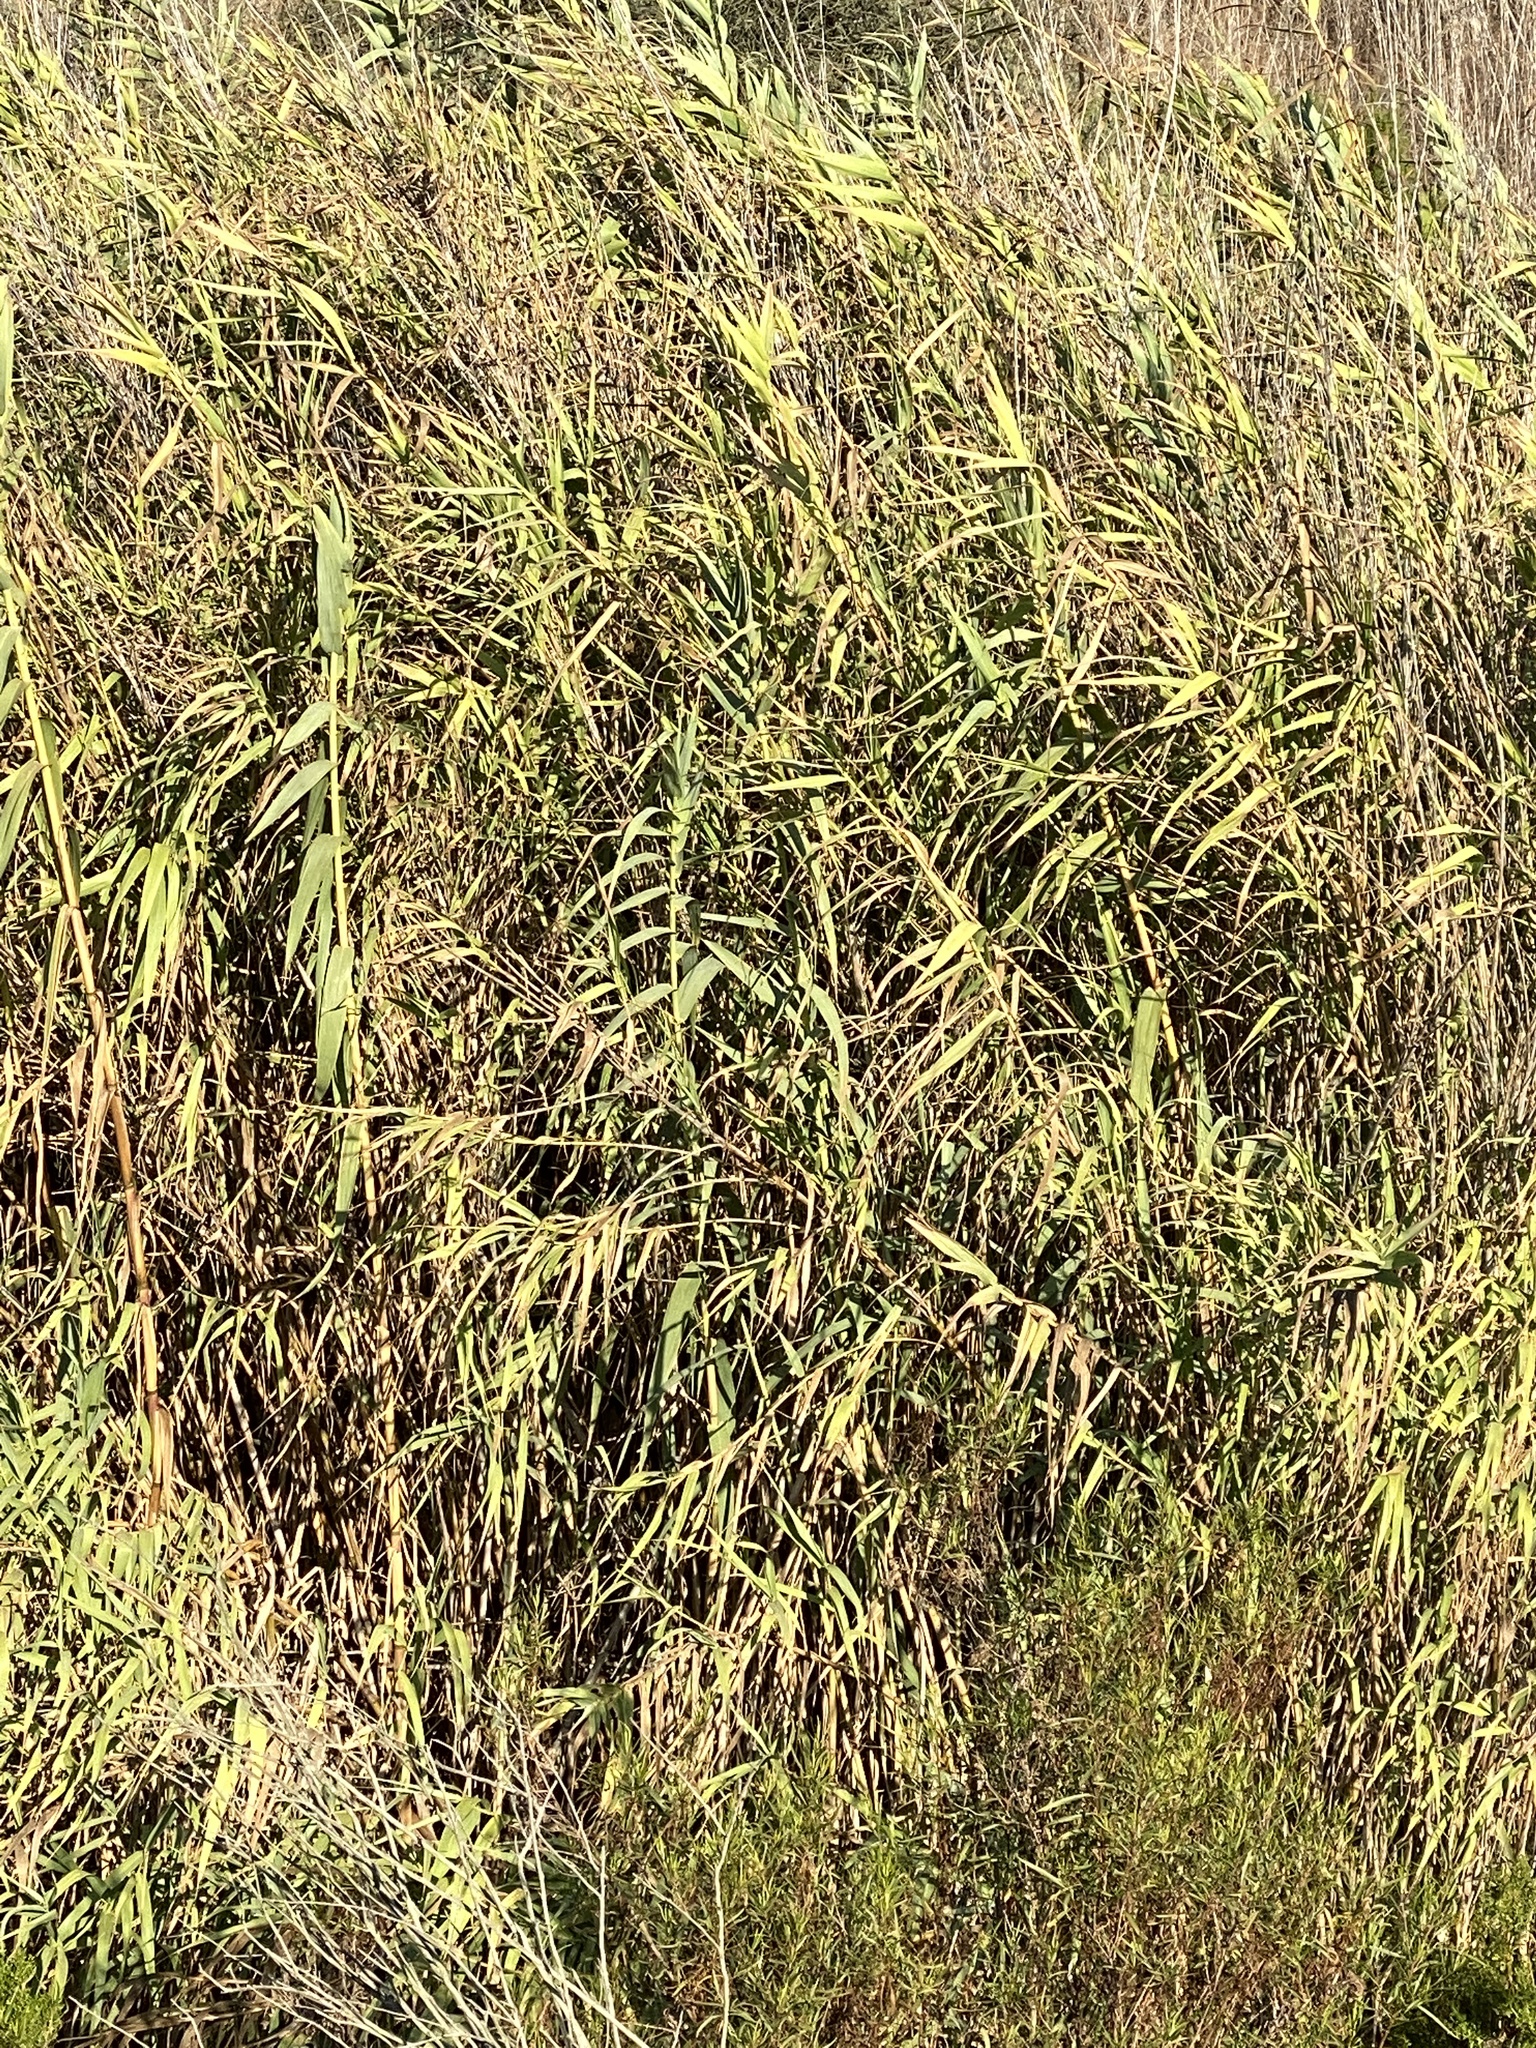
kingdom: Plantae
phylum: Tracheophyta
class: Liliopsida
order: Poales
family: Poaceae
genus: Arundo
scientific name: Arundo donax
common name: Giant reed
